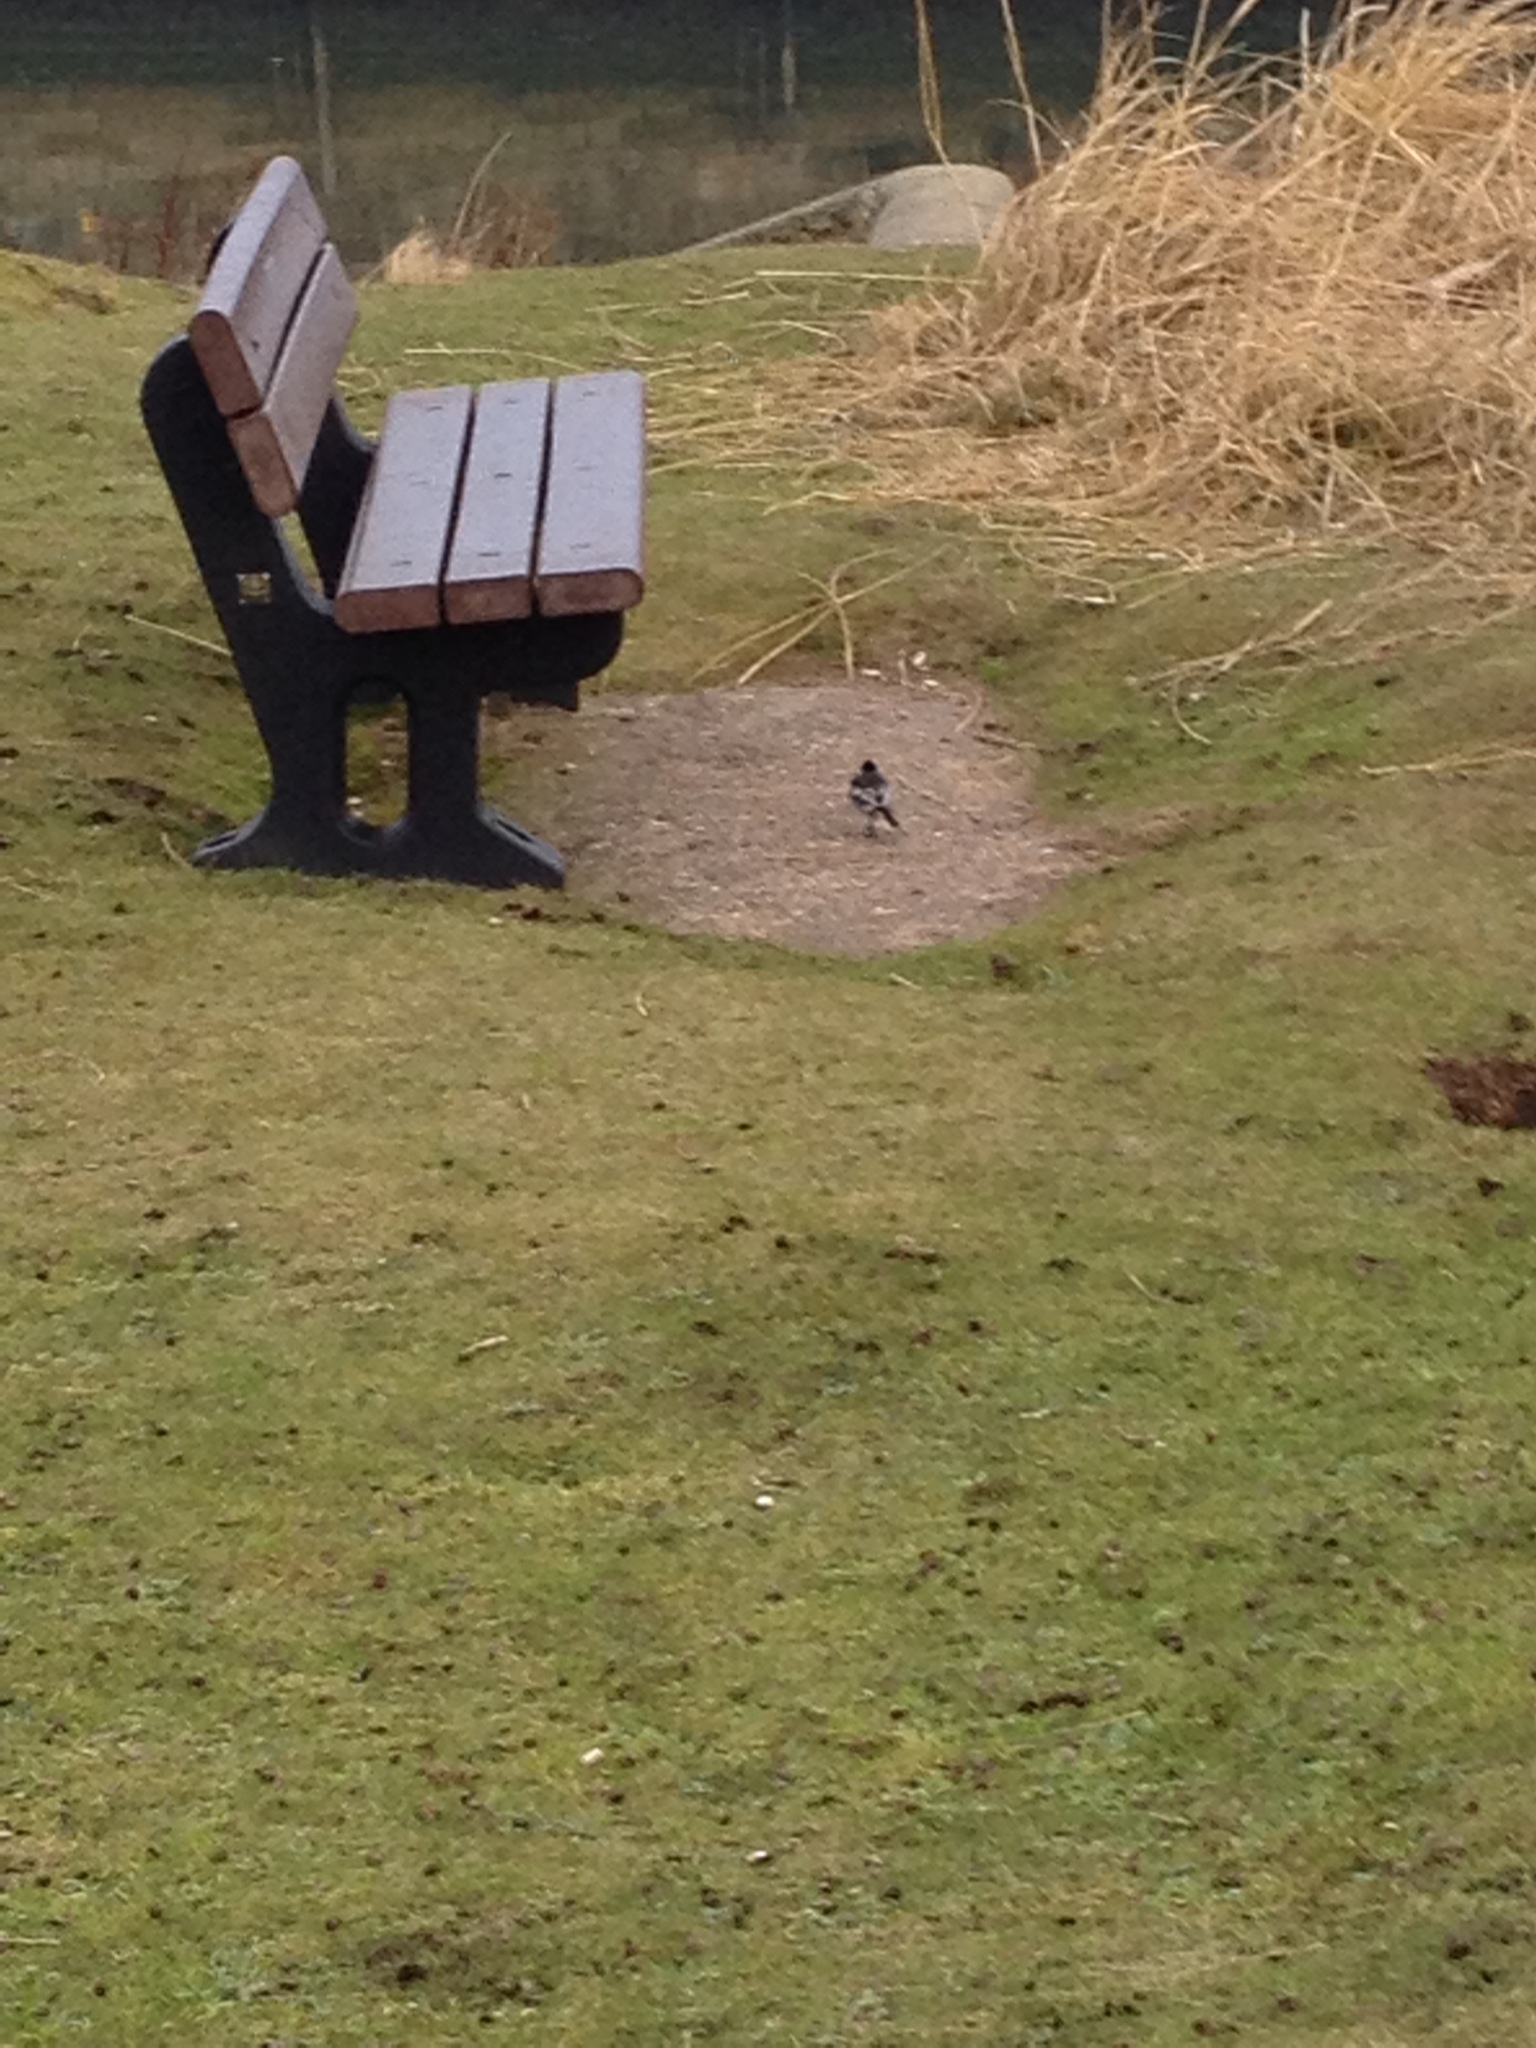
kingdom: Animalia
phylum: Chordata
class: Aves
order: Passeriformes
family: Motacillidae
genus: Motacilla
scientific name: Motacilla alba
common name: White wagtail
